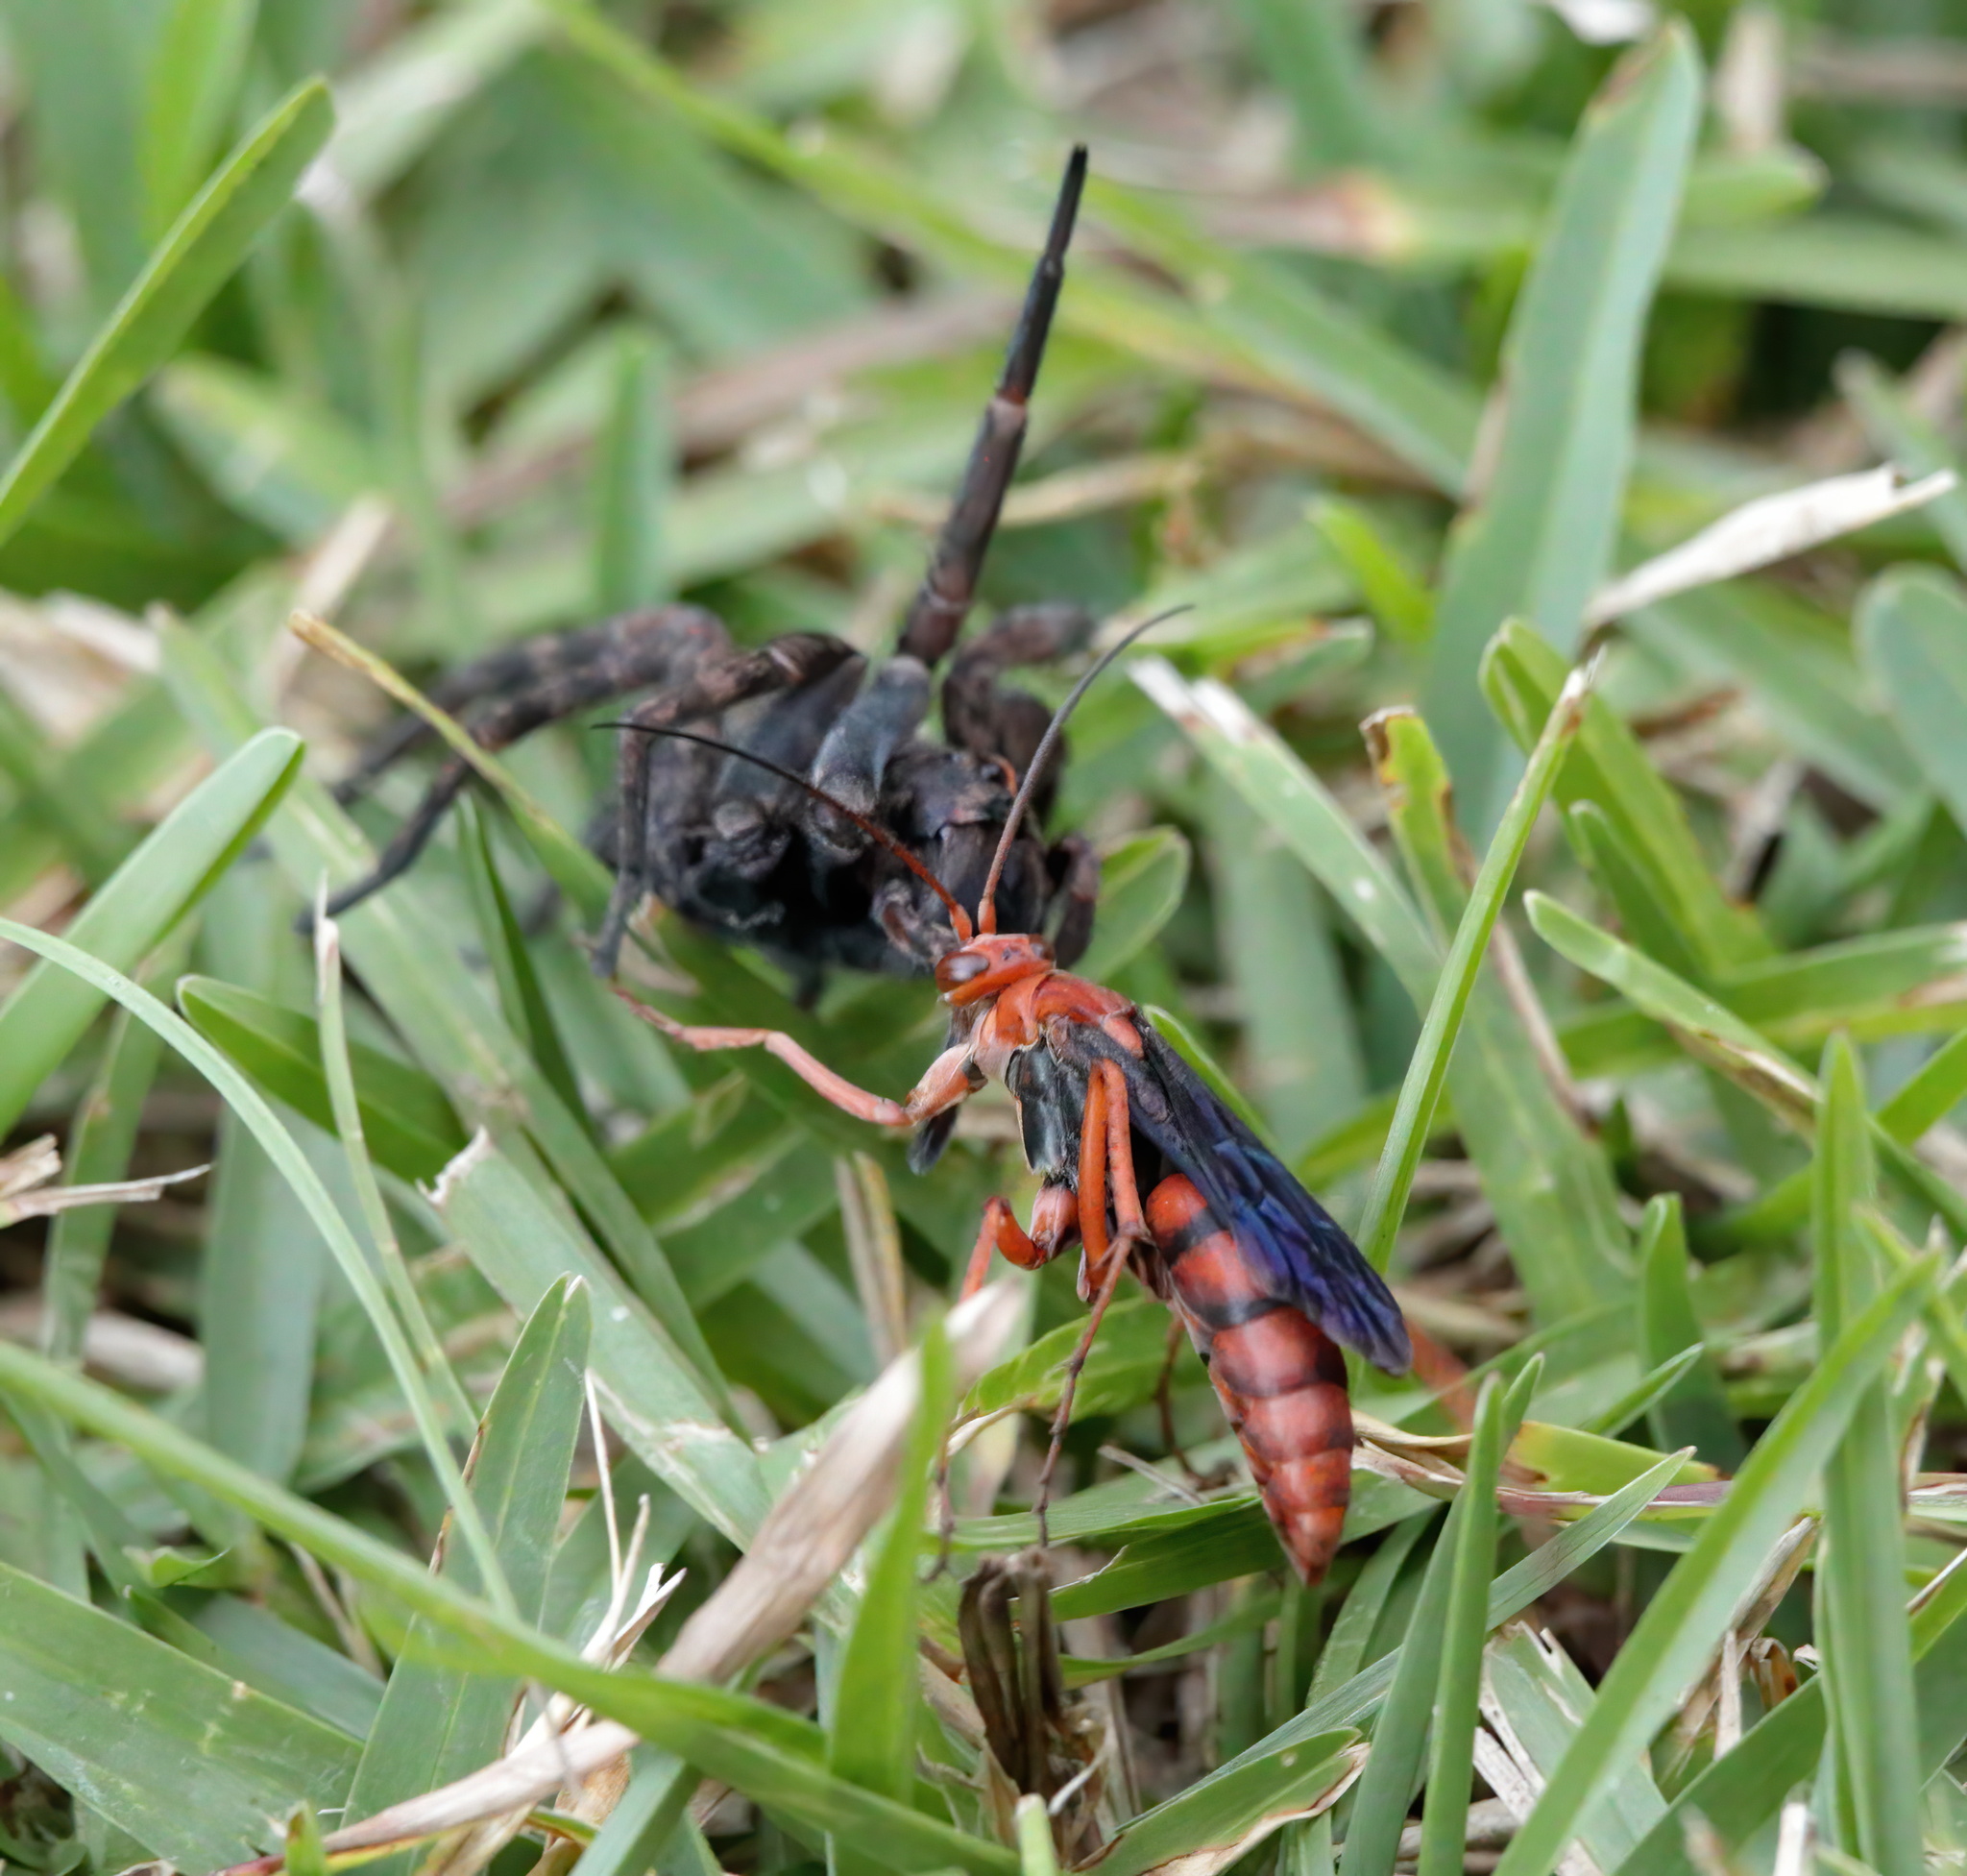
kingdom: Animalia
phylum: Arthropoda
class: Insecta
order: Hymenoptera
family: Pompilidae
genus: Tachypompilus
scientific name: Tachypompilus ferrugineus
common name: Rusty spider wasp
